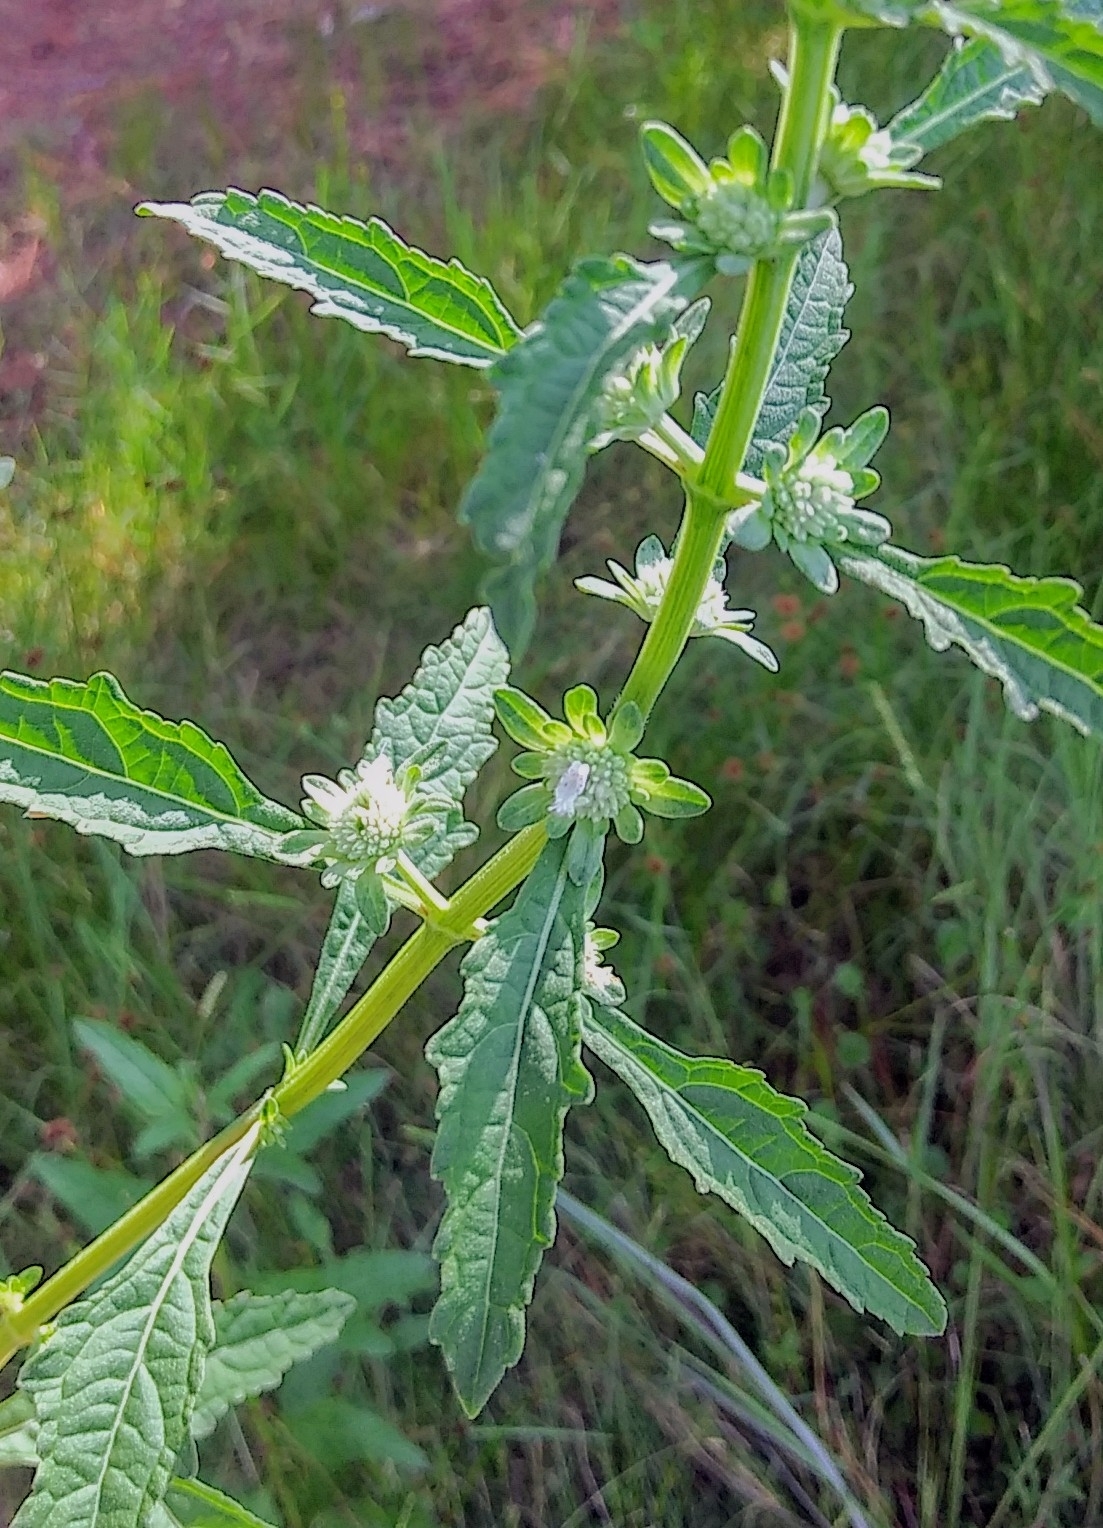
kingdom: Plantae
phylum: Tracheophyta
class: Magnoliopsida
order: Lamiales
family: Lamiaceae
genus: Hyptis
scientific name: Hyptis alata
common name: Cluster bush-mint
